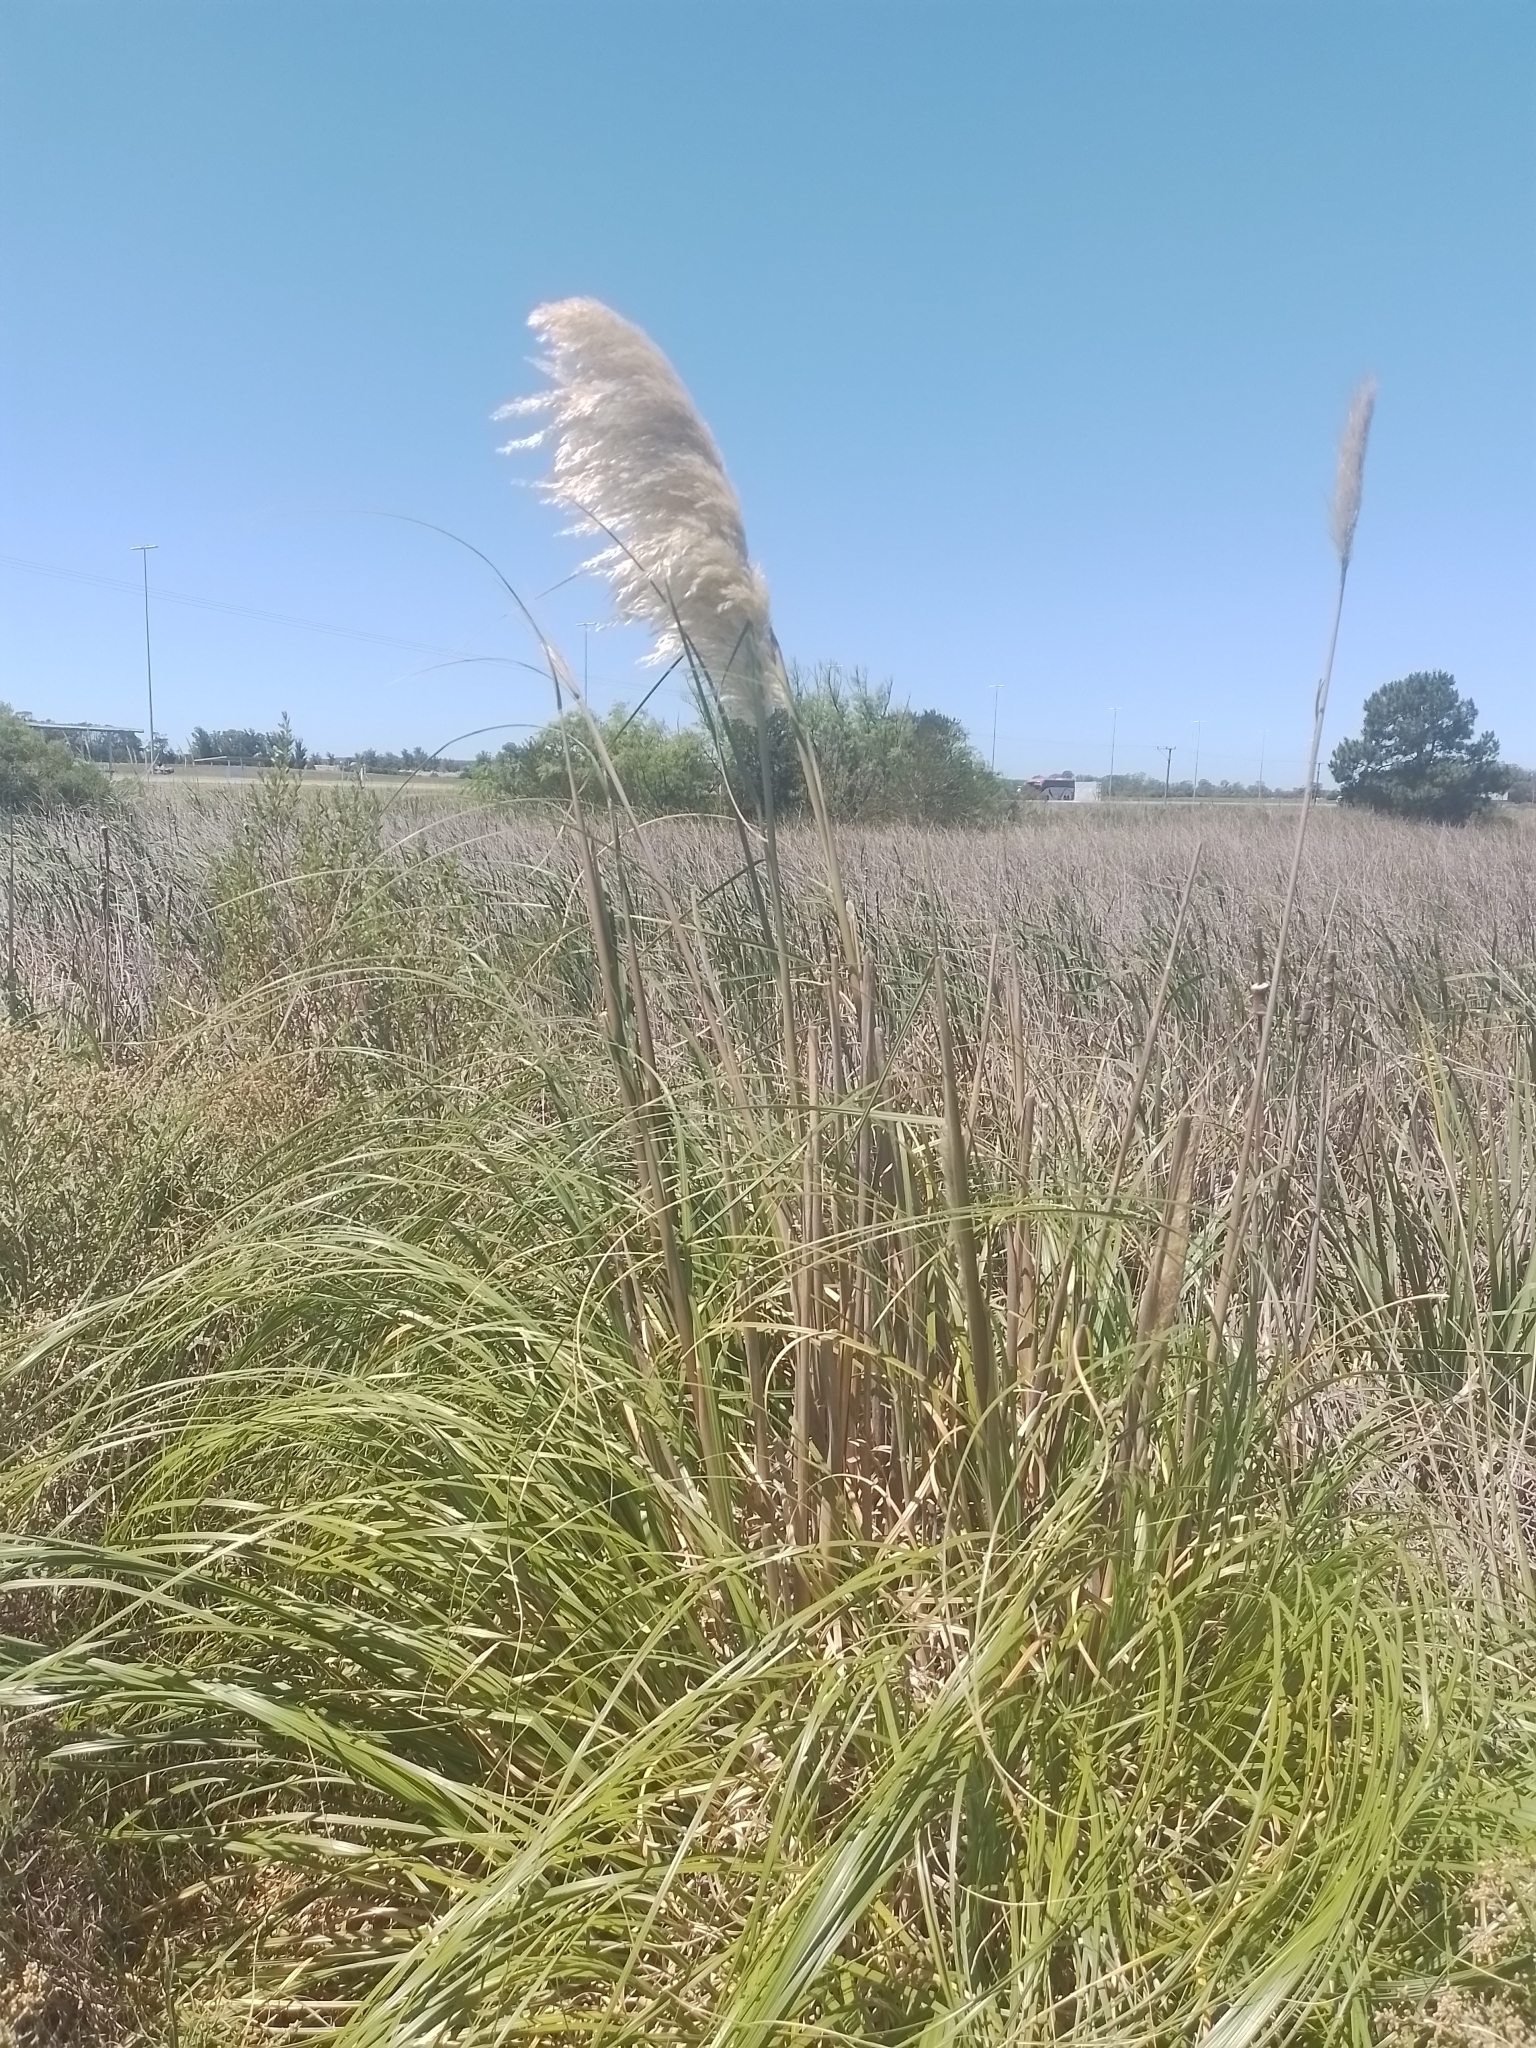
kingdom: Plantae
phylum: Tracheophyta
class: Liliopsida
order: Poales
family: Poaceae
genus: Cortaderia
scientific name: Cortaderia selloana
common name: Uruguayan pampas grass
